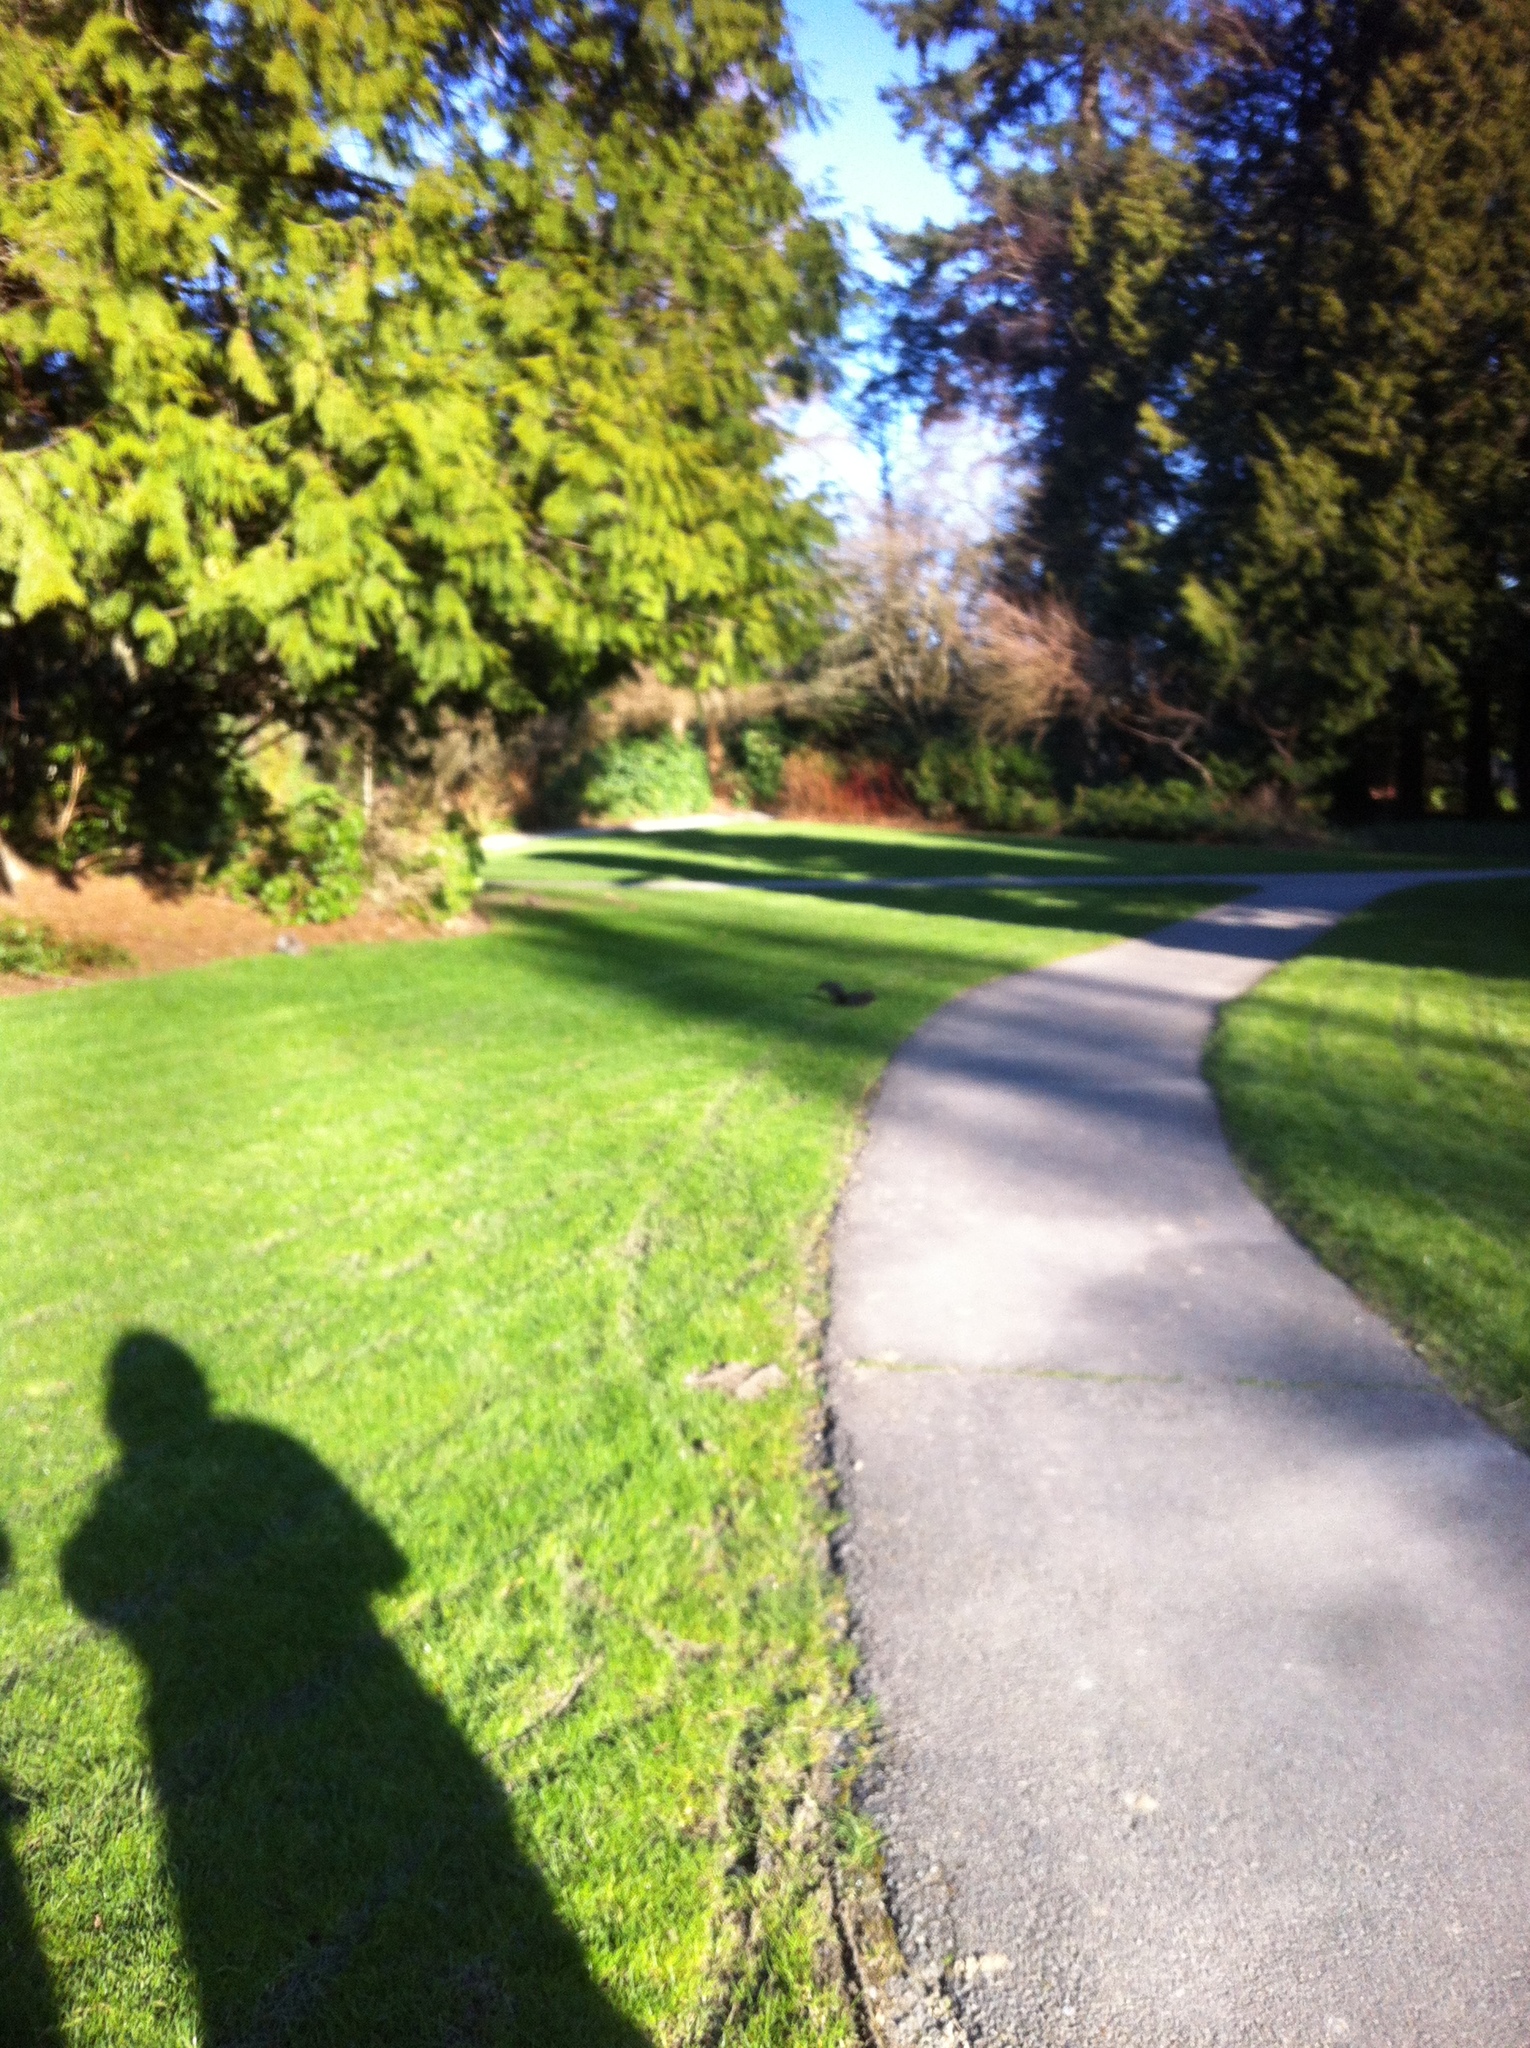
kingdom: Animalia
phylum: Chordata
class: Mammalia
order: Rodentia
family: Sciuridae
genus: Sciurus
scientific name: Sciurus carolinensis
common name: Eastern gray squirrel
